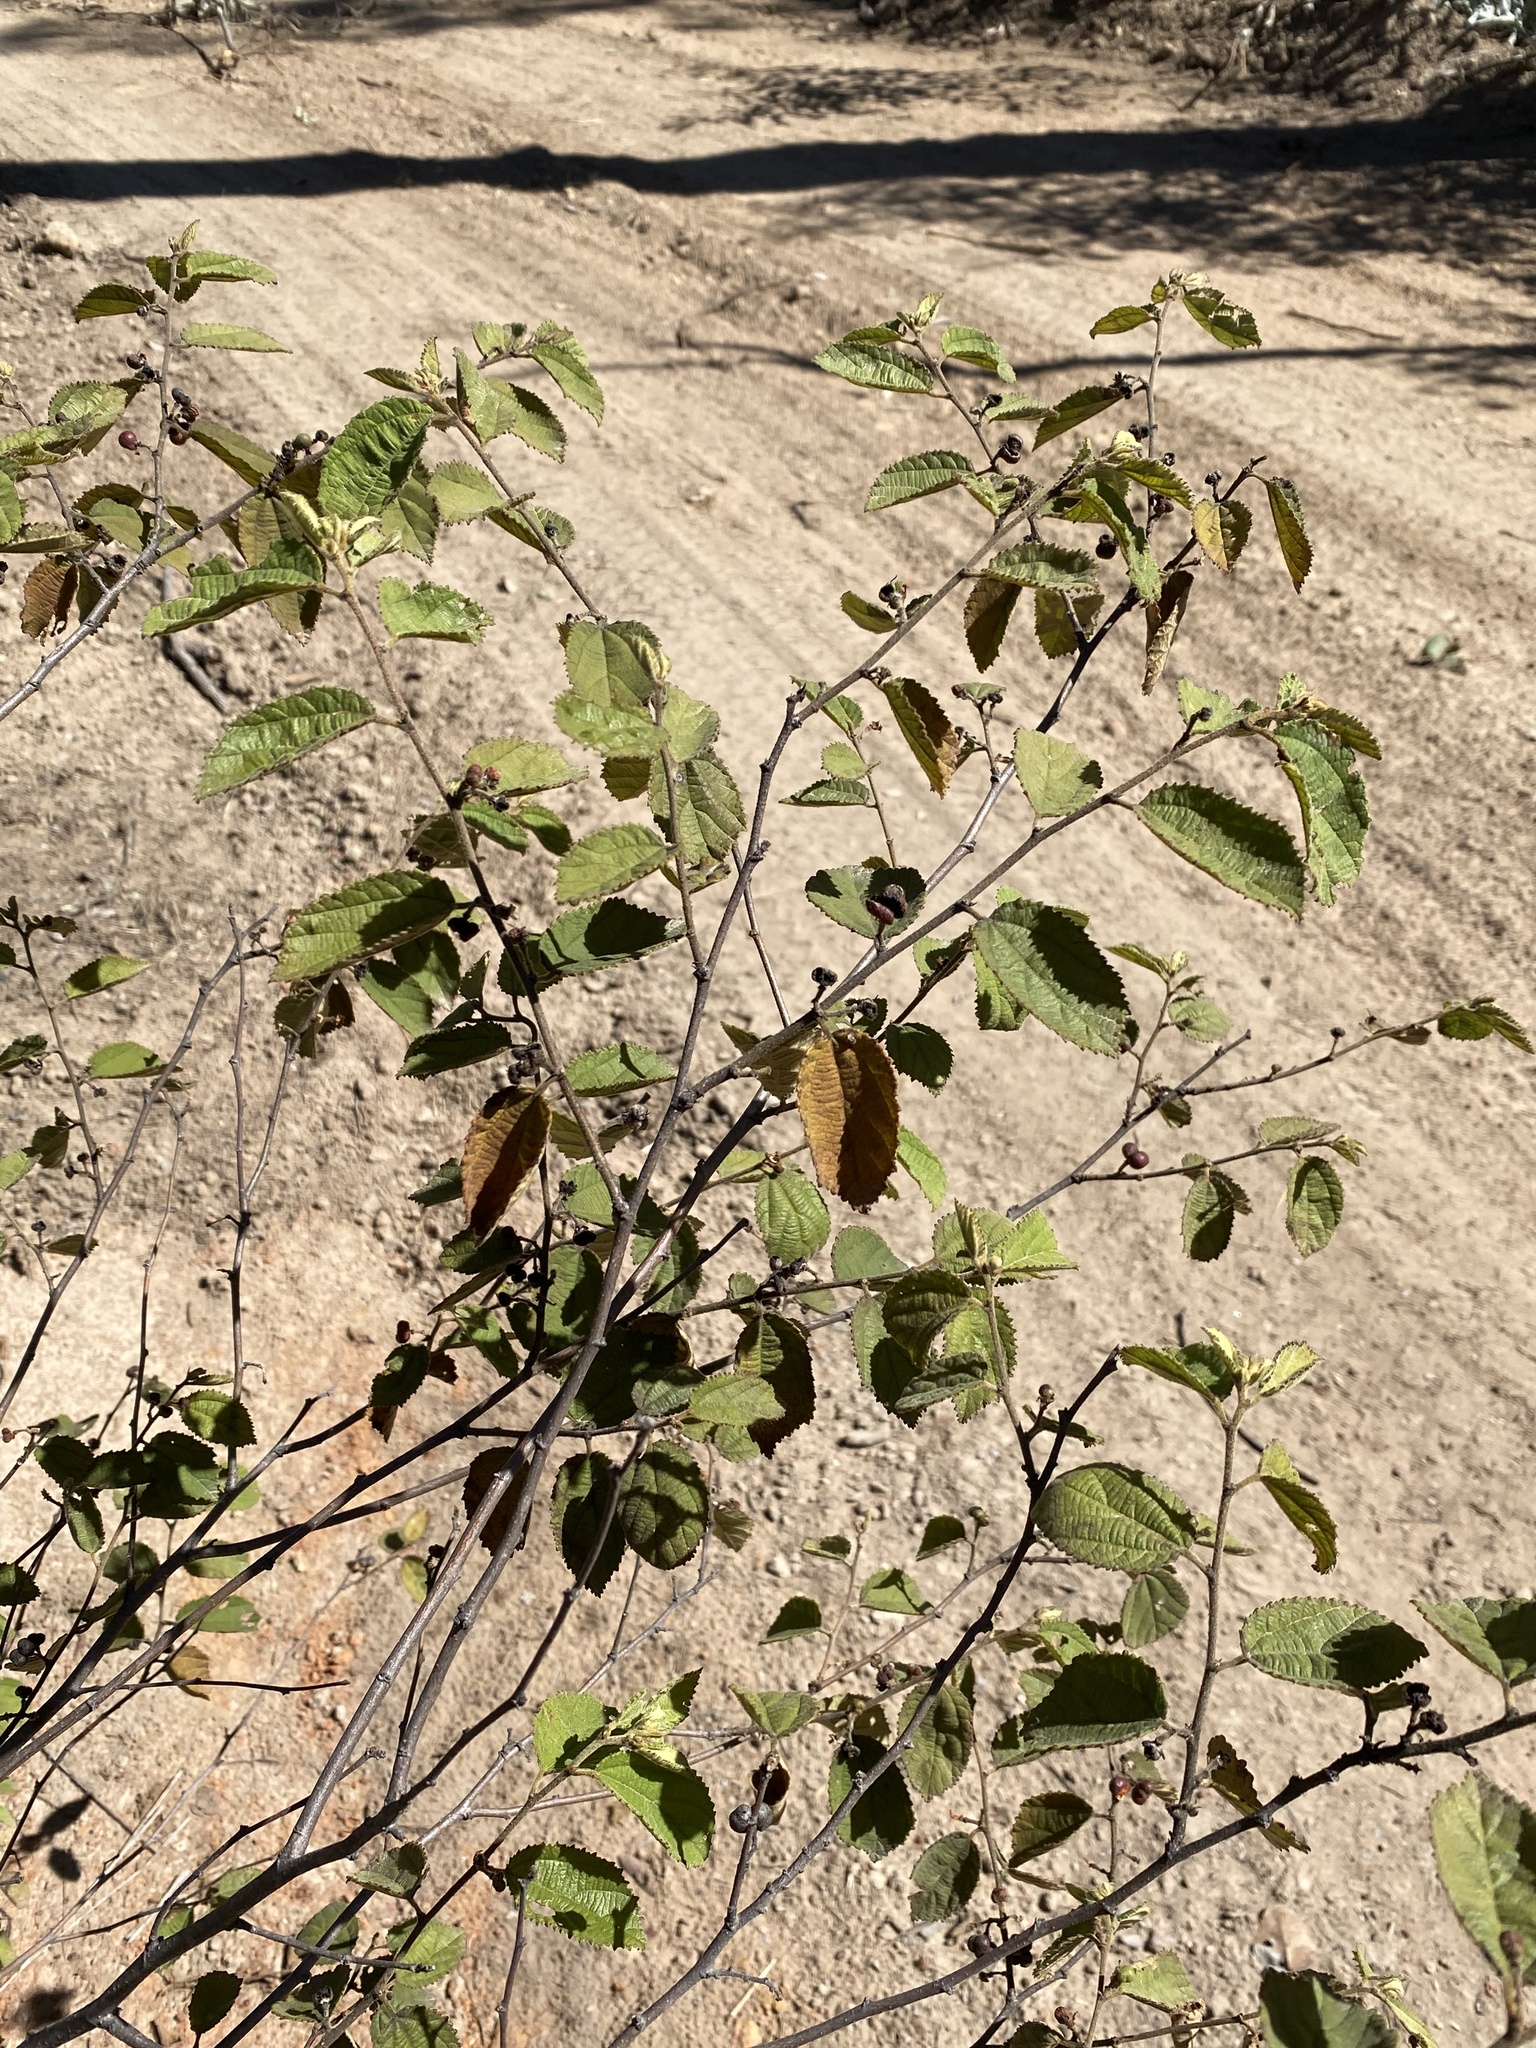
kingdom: Plantae
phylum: Tracheophyta
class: Magnoliopsida
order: Malvales
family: Malvaceae
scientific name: Malvaceae
